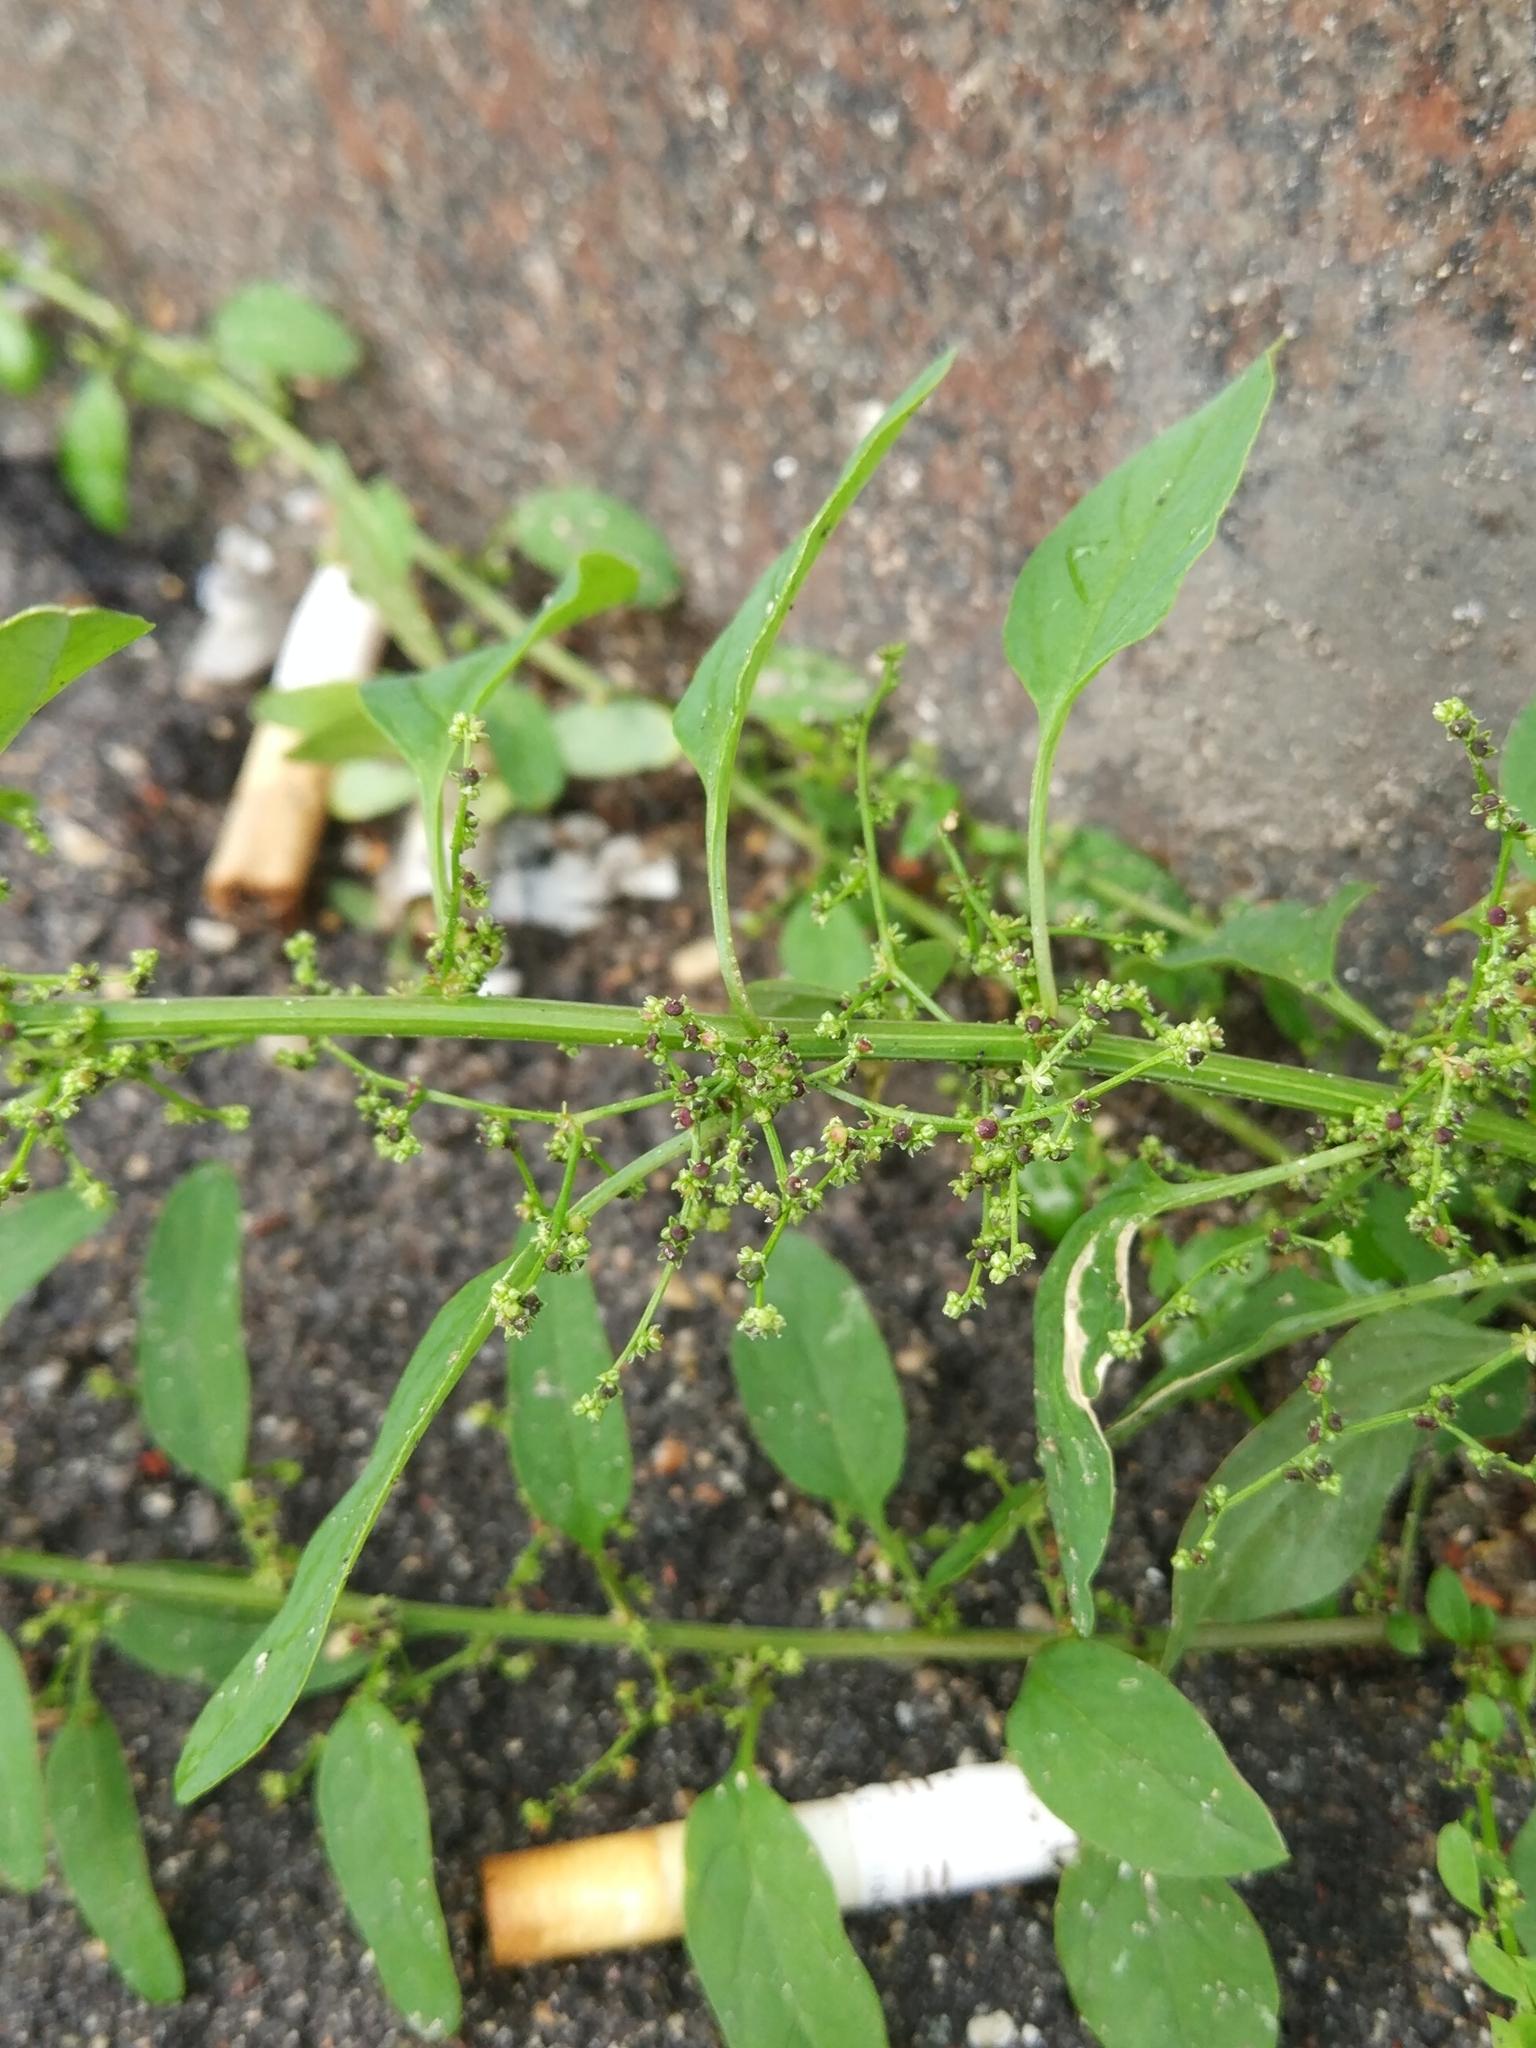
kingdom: Plantae
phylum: Tracheophyta
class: Magnoliopsida
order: Caryophyllales
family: Amaranthaceae
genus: Lipandra
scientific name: Lipandra polysperma
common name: Many-seed goosefoot
